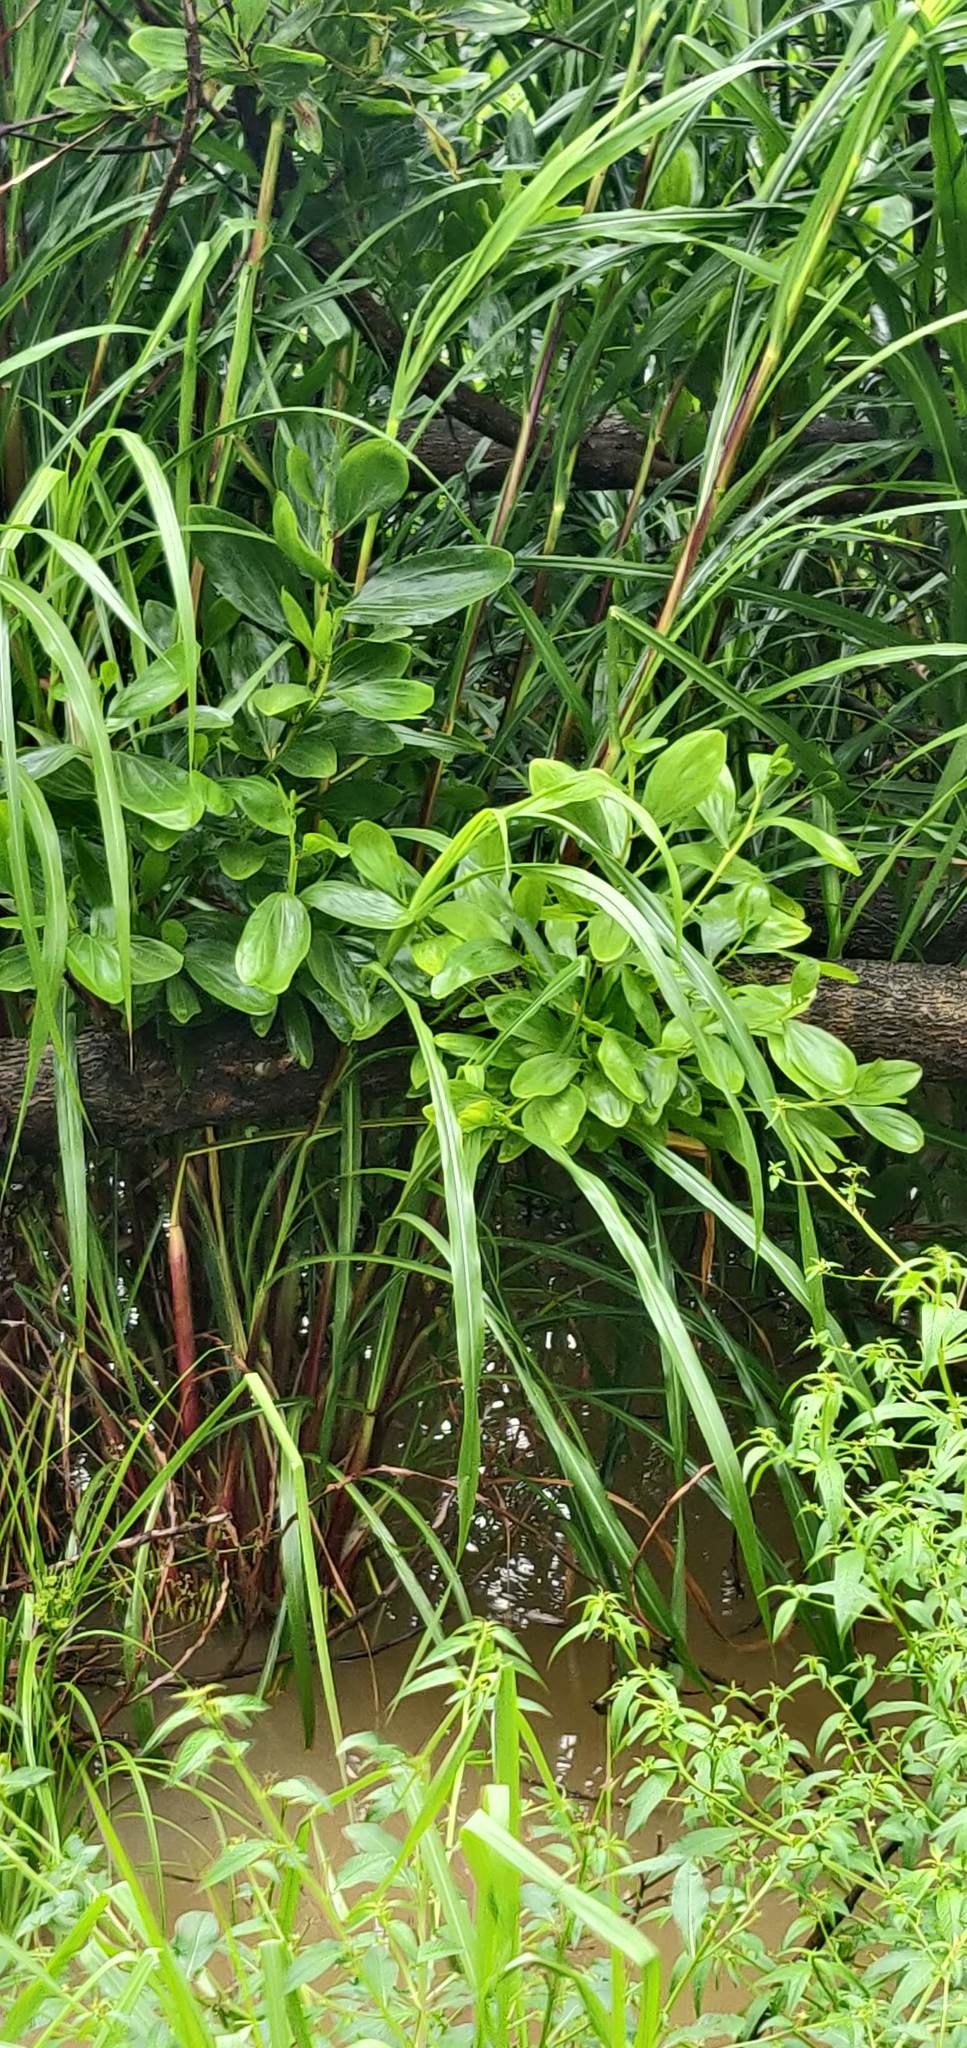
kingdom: Plantae
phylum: Tracheophyta
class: Magnoliopsida
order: Fabales
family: Fabaceae
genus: Acacia
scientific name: Acacia auriculiformis
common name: Earleaf acacia
